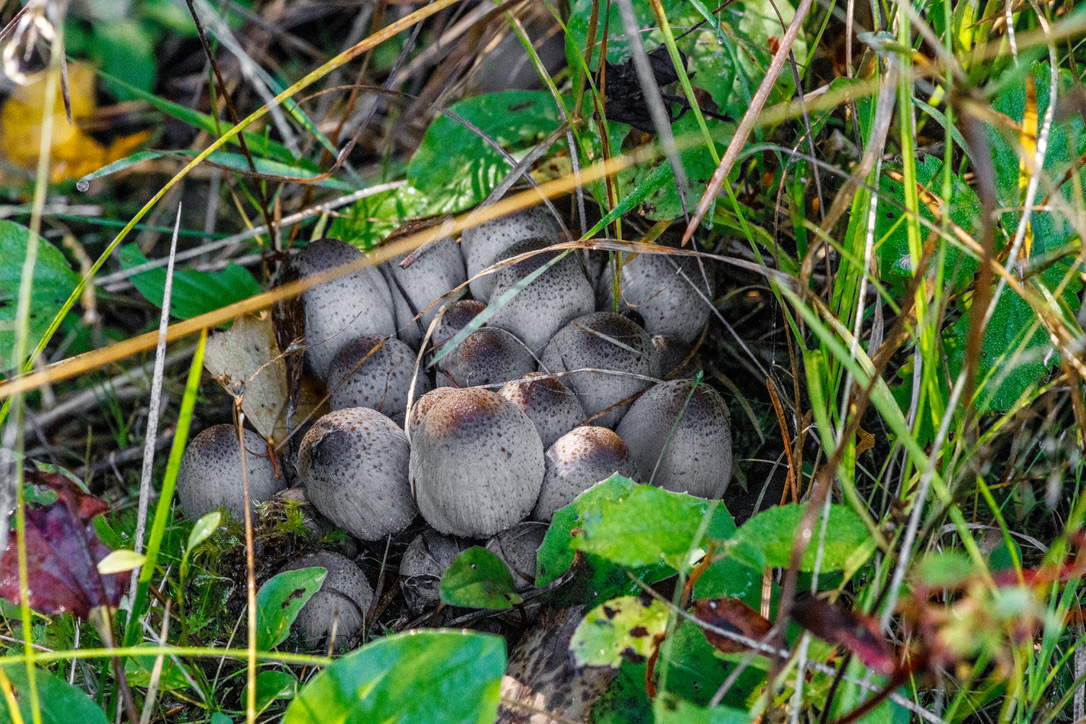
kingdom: Fungi
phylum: Basidiomycota
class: Agaricomycetes
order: Agaricales
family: Psathyrellaceae
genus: Coprinopsis
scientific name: Coprinopsis atramentaria
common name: Common ink-cap
